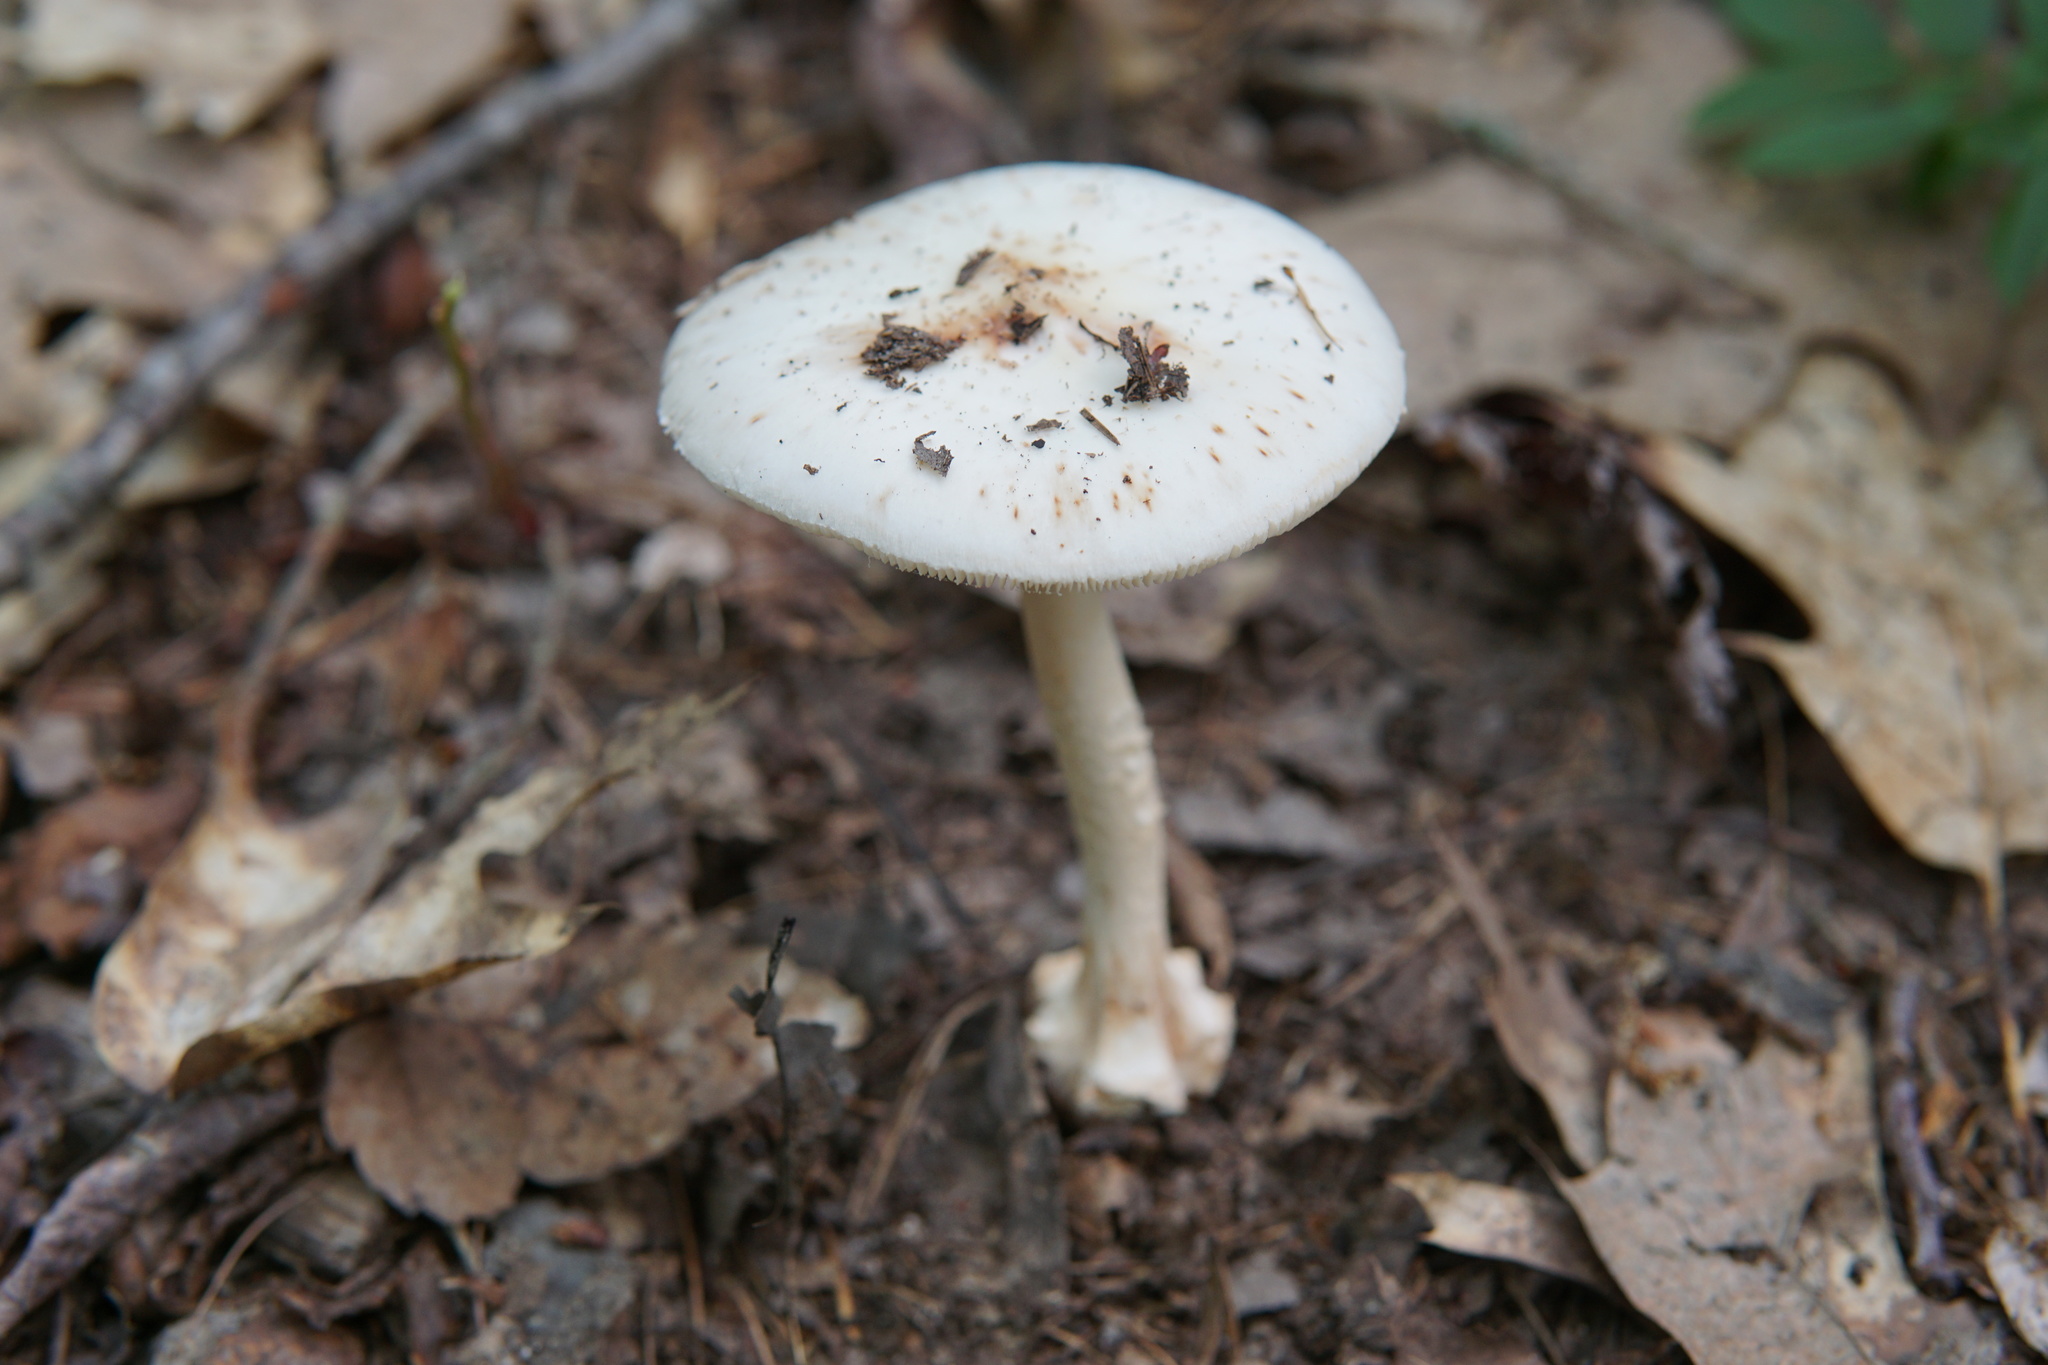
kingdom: Fungi
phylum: Basidiomycota
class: Agaricomycetes
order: Agaricales
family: Amanitaceae
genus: Amanita
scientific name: Amanita aestivalis
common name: White american star-footed amanita
